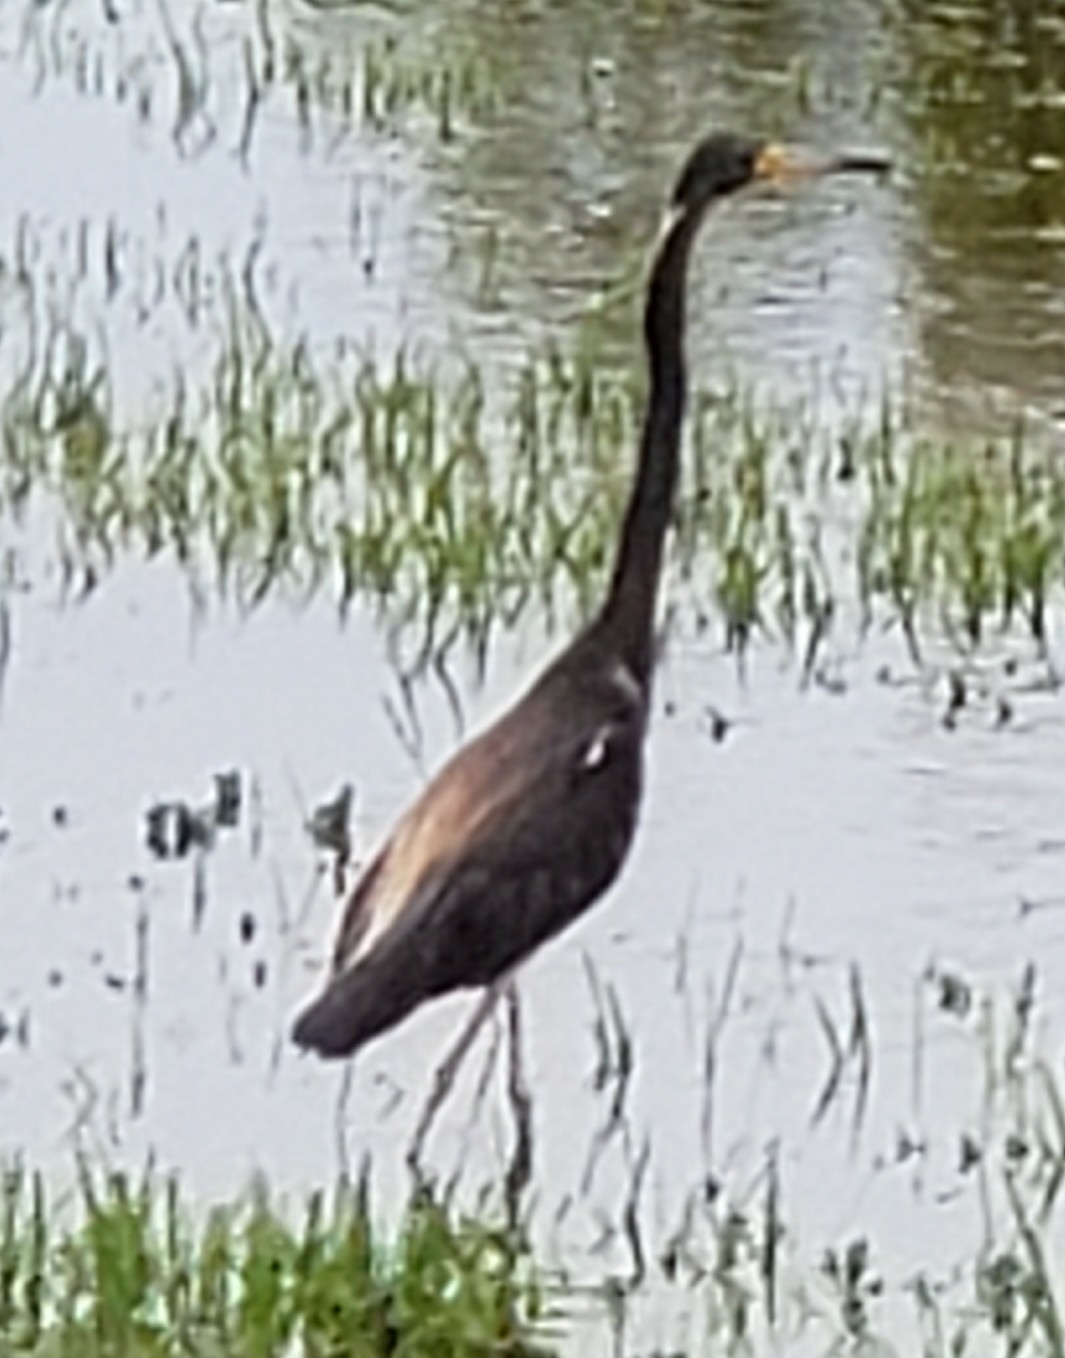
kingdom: Animalia
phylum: Chordata
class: Aves
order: Pelecaniformes
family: Ardeidae
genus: Egretta
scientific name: Egretta tricolor
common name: Tricolored heron
